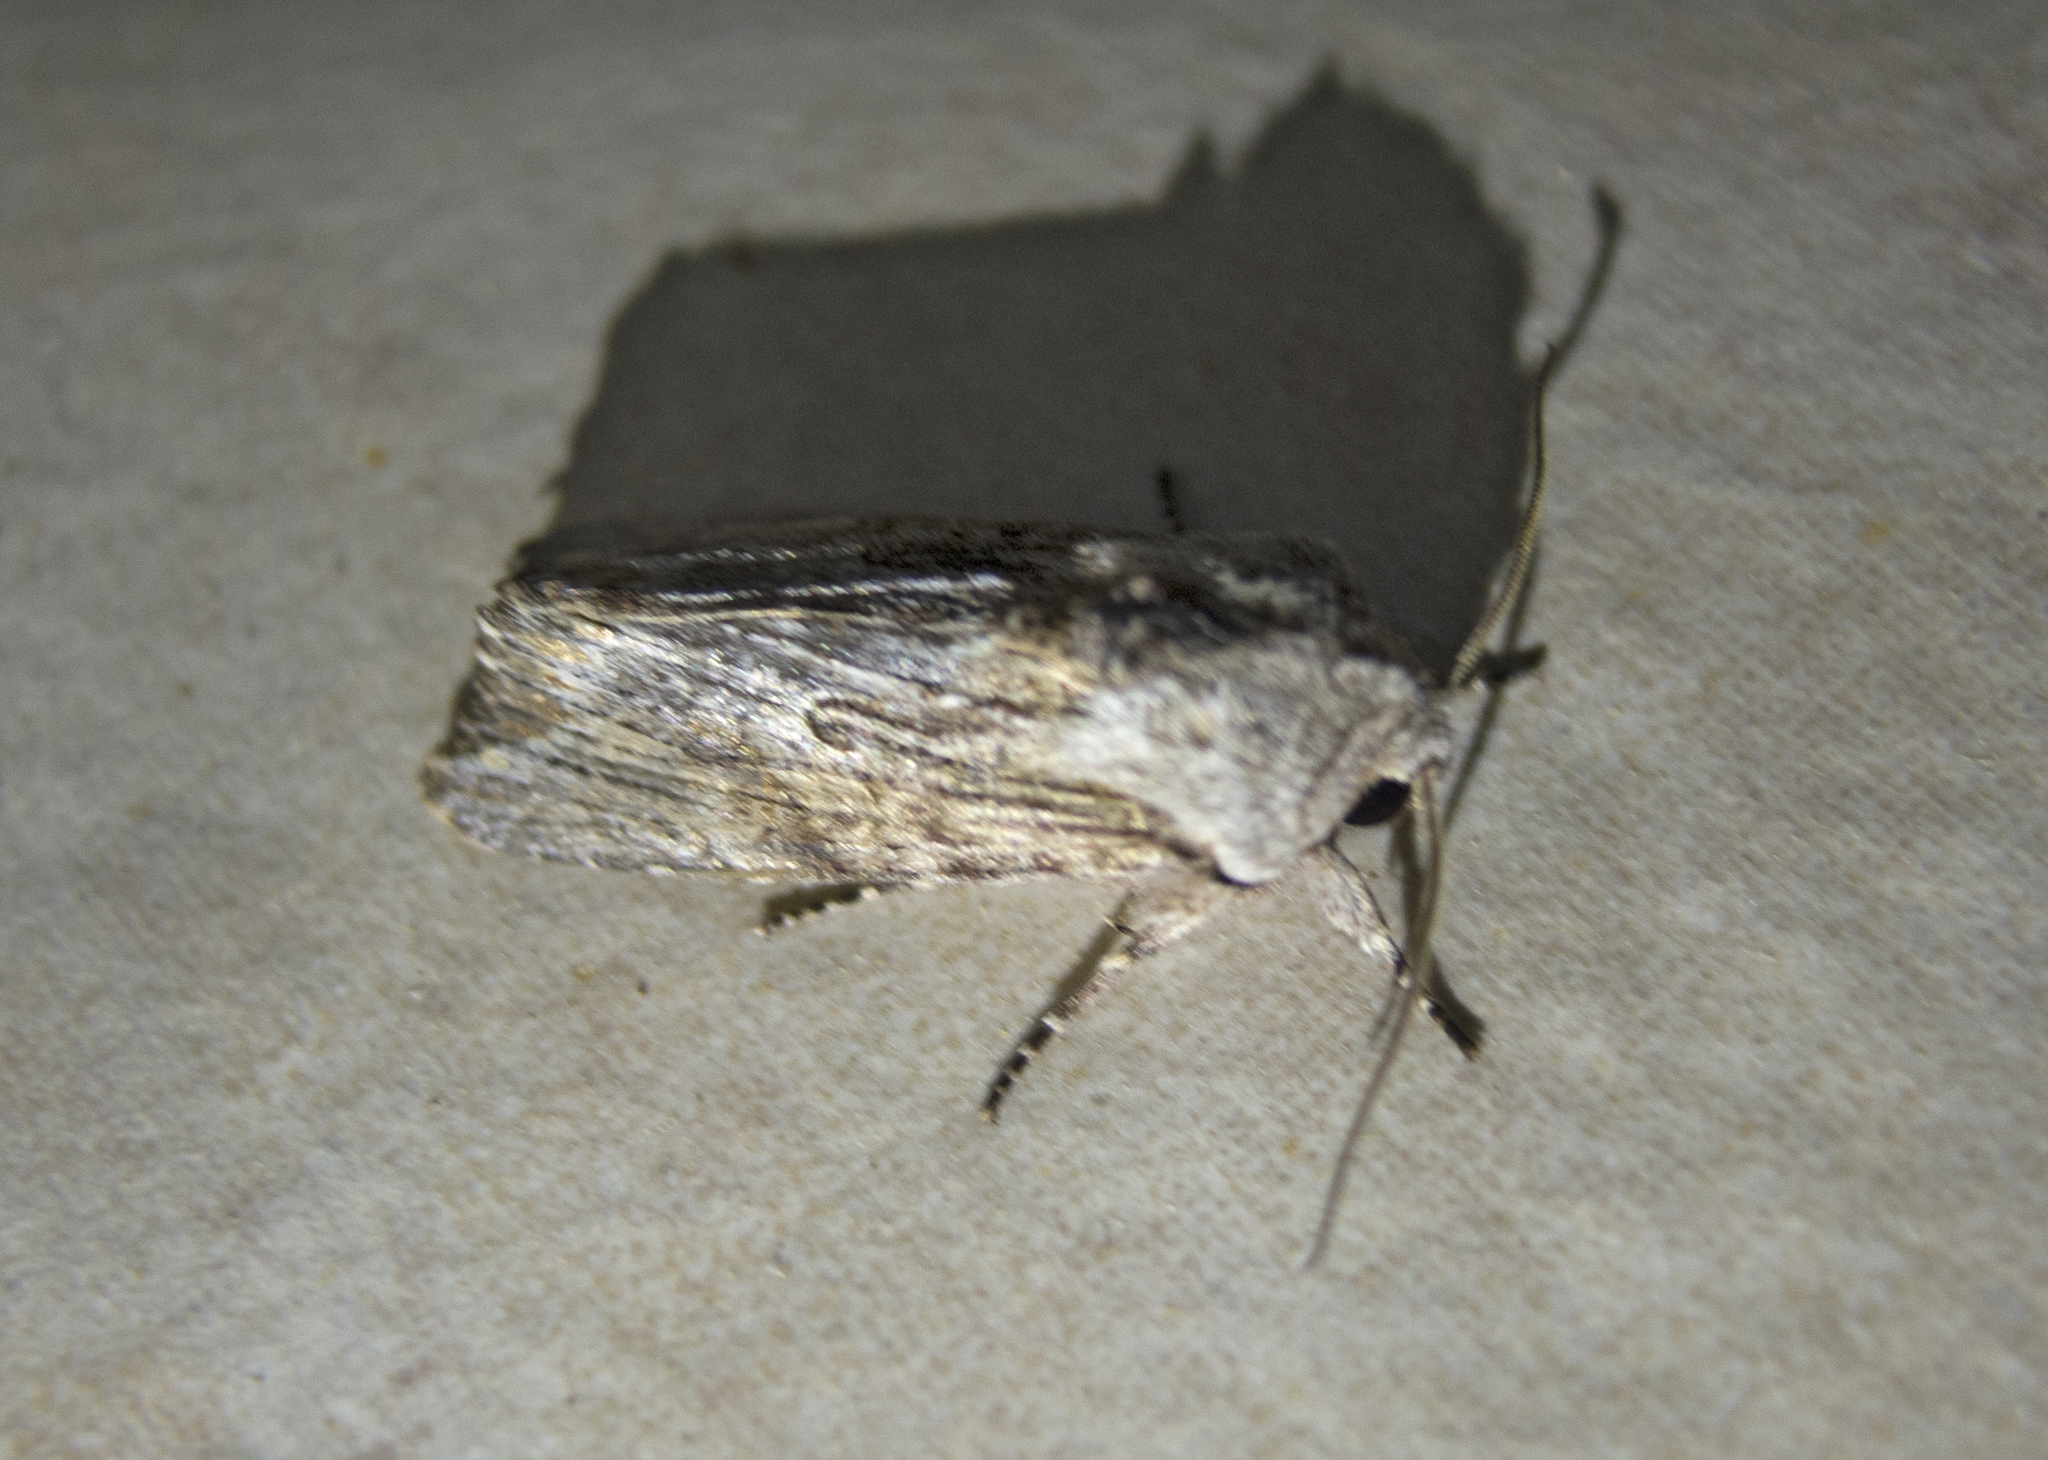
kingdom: Animalia
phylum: Arthropoda
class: Insecta
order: Lepidoptera
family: Noctuidae
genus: Egira
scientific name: Egira
